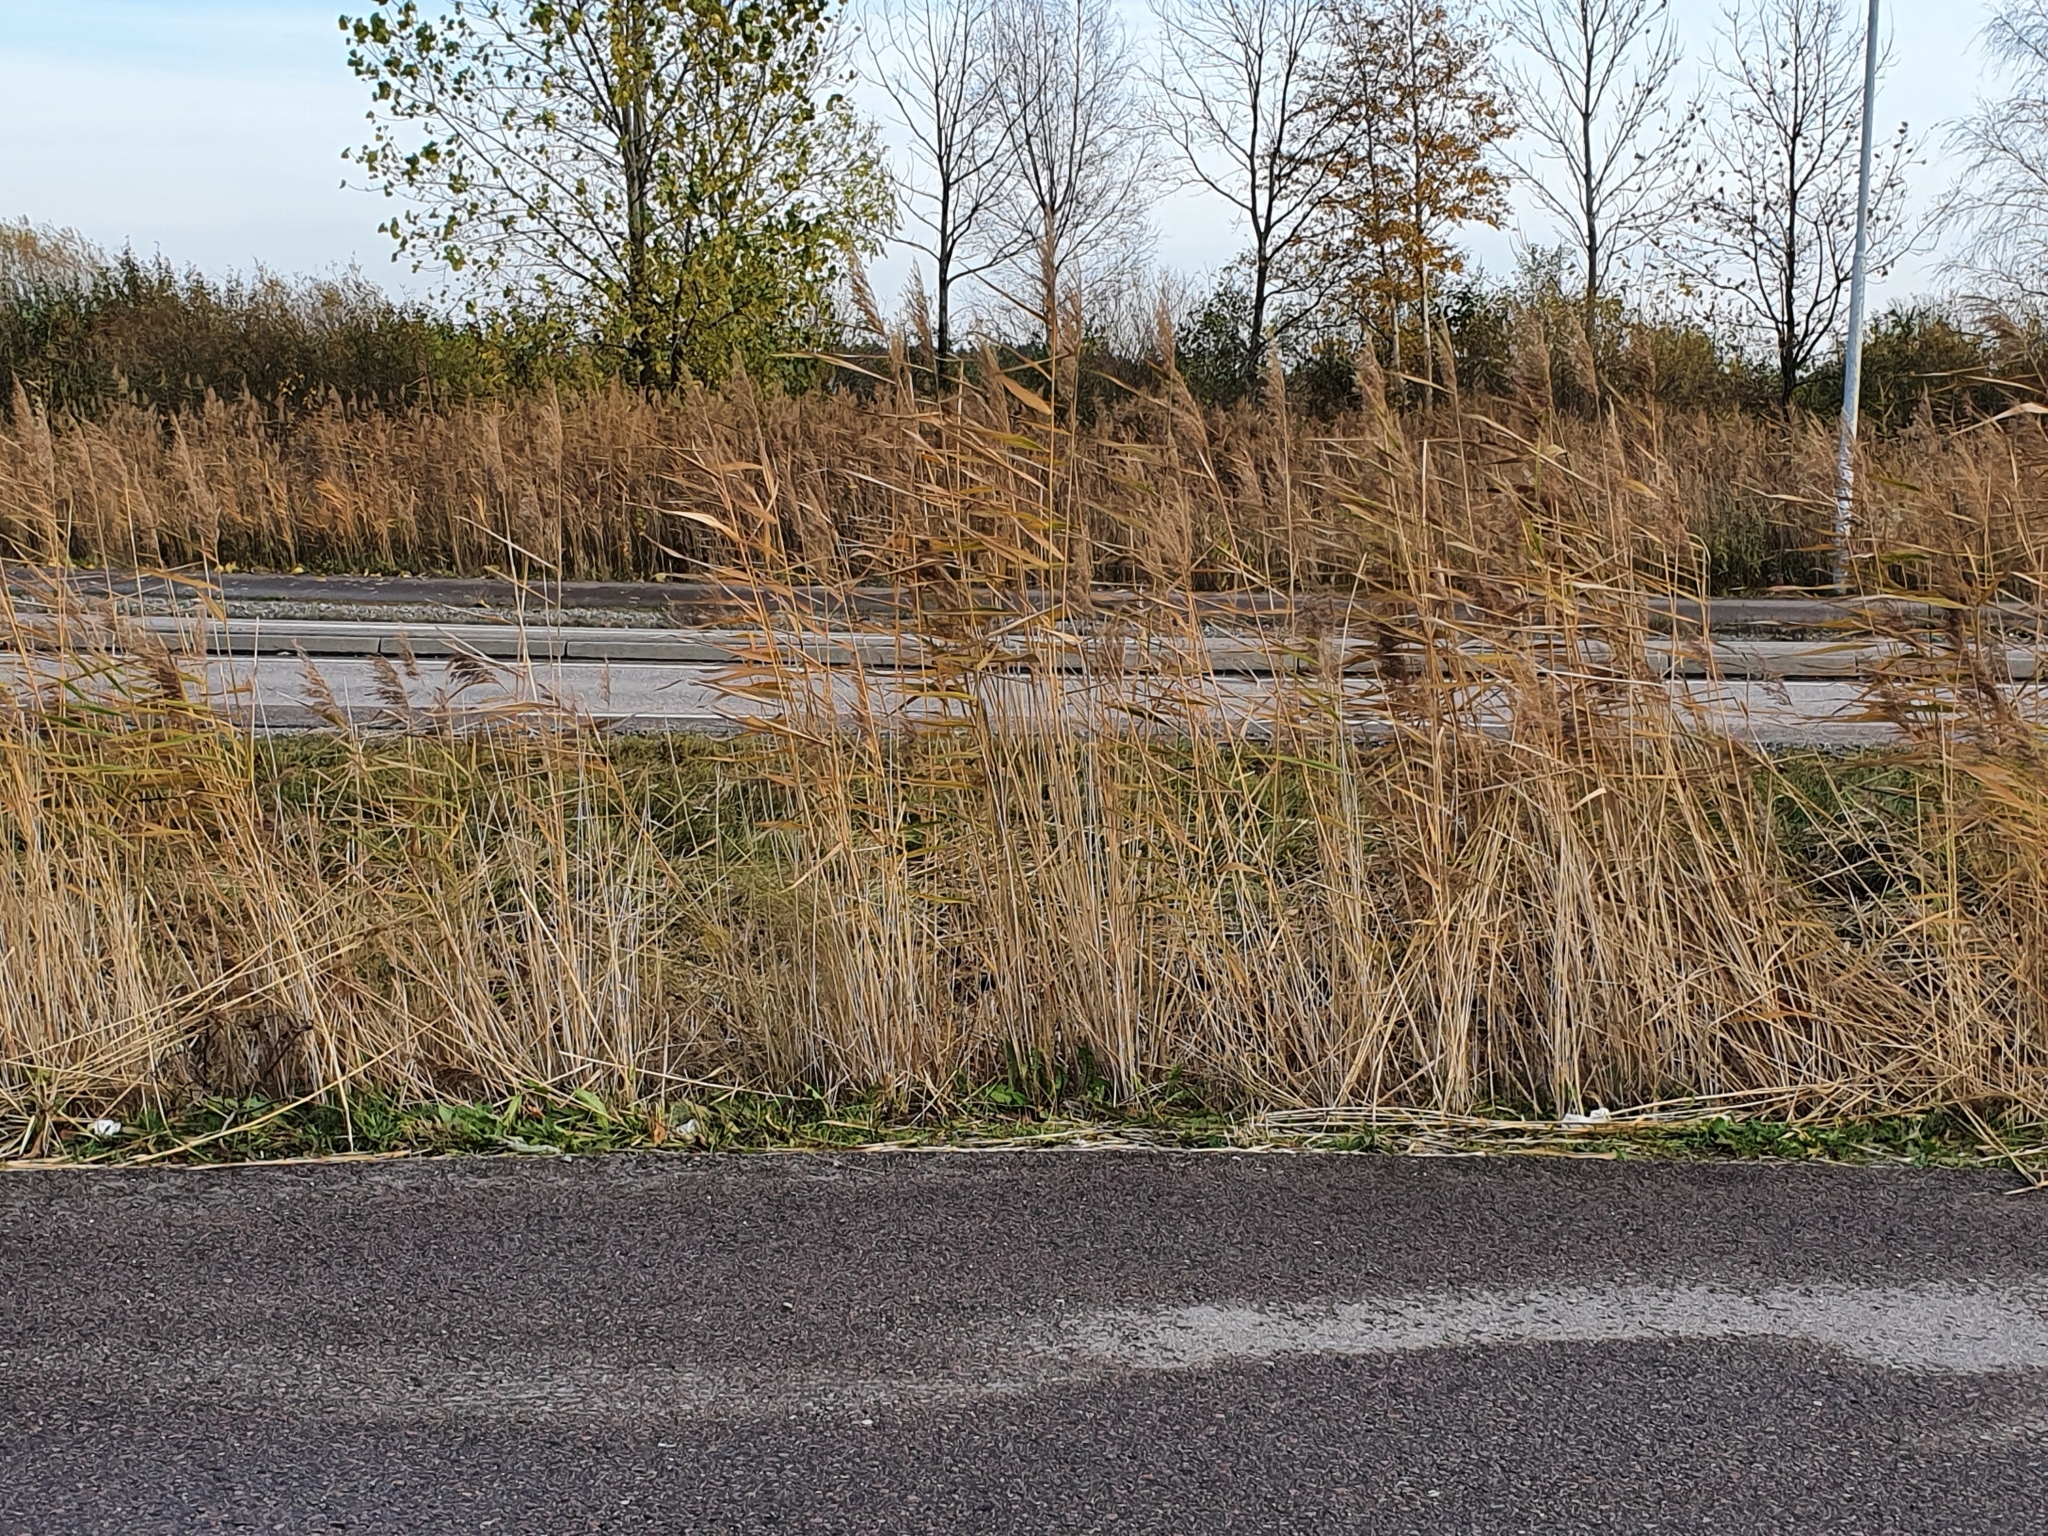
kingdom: Plantae
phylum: Tracheophyta
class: Liliopsida
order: Poales
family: Poaceae
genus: Phragmites
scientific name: Phragmites australis
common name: Common reed
